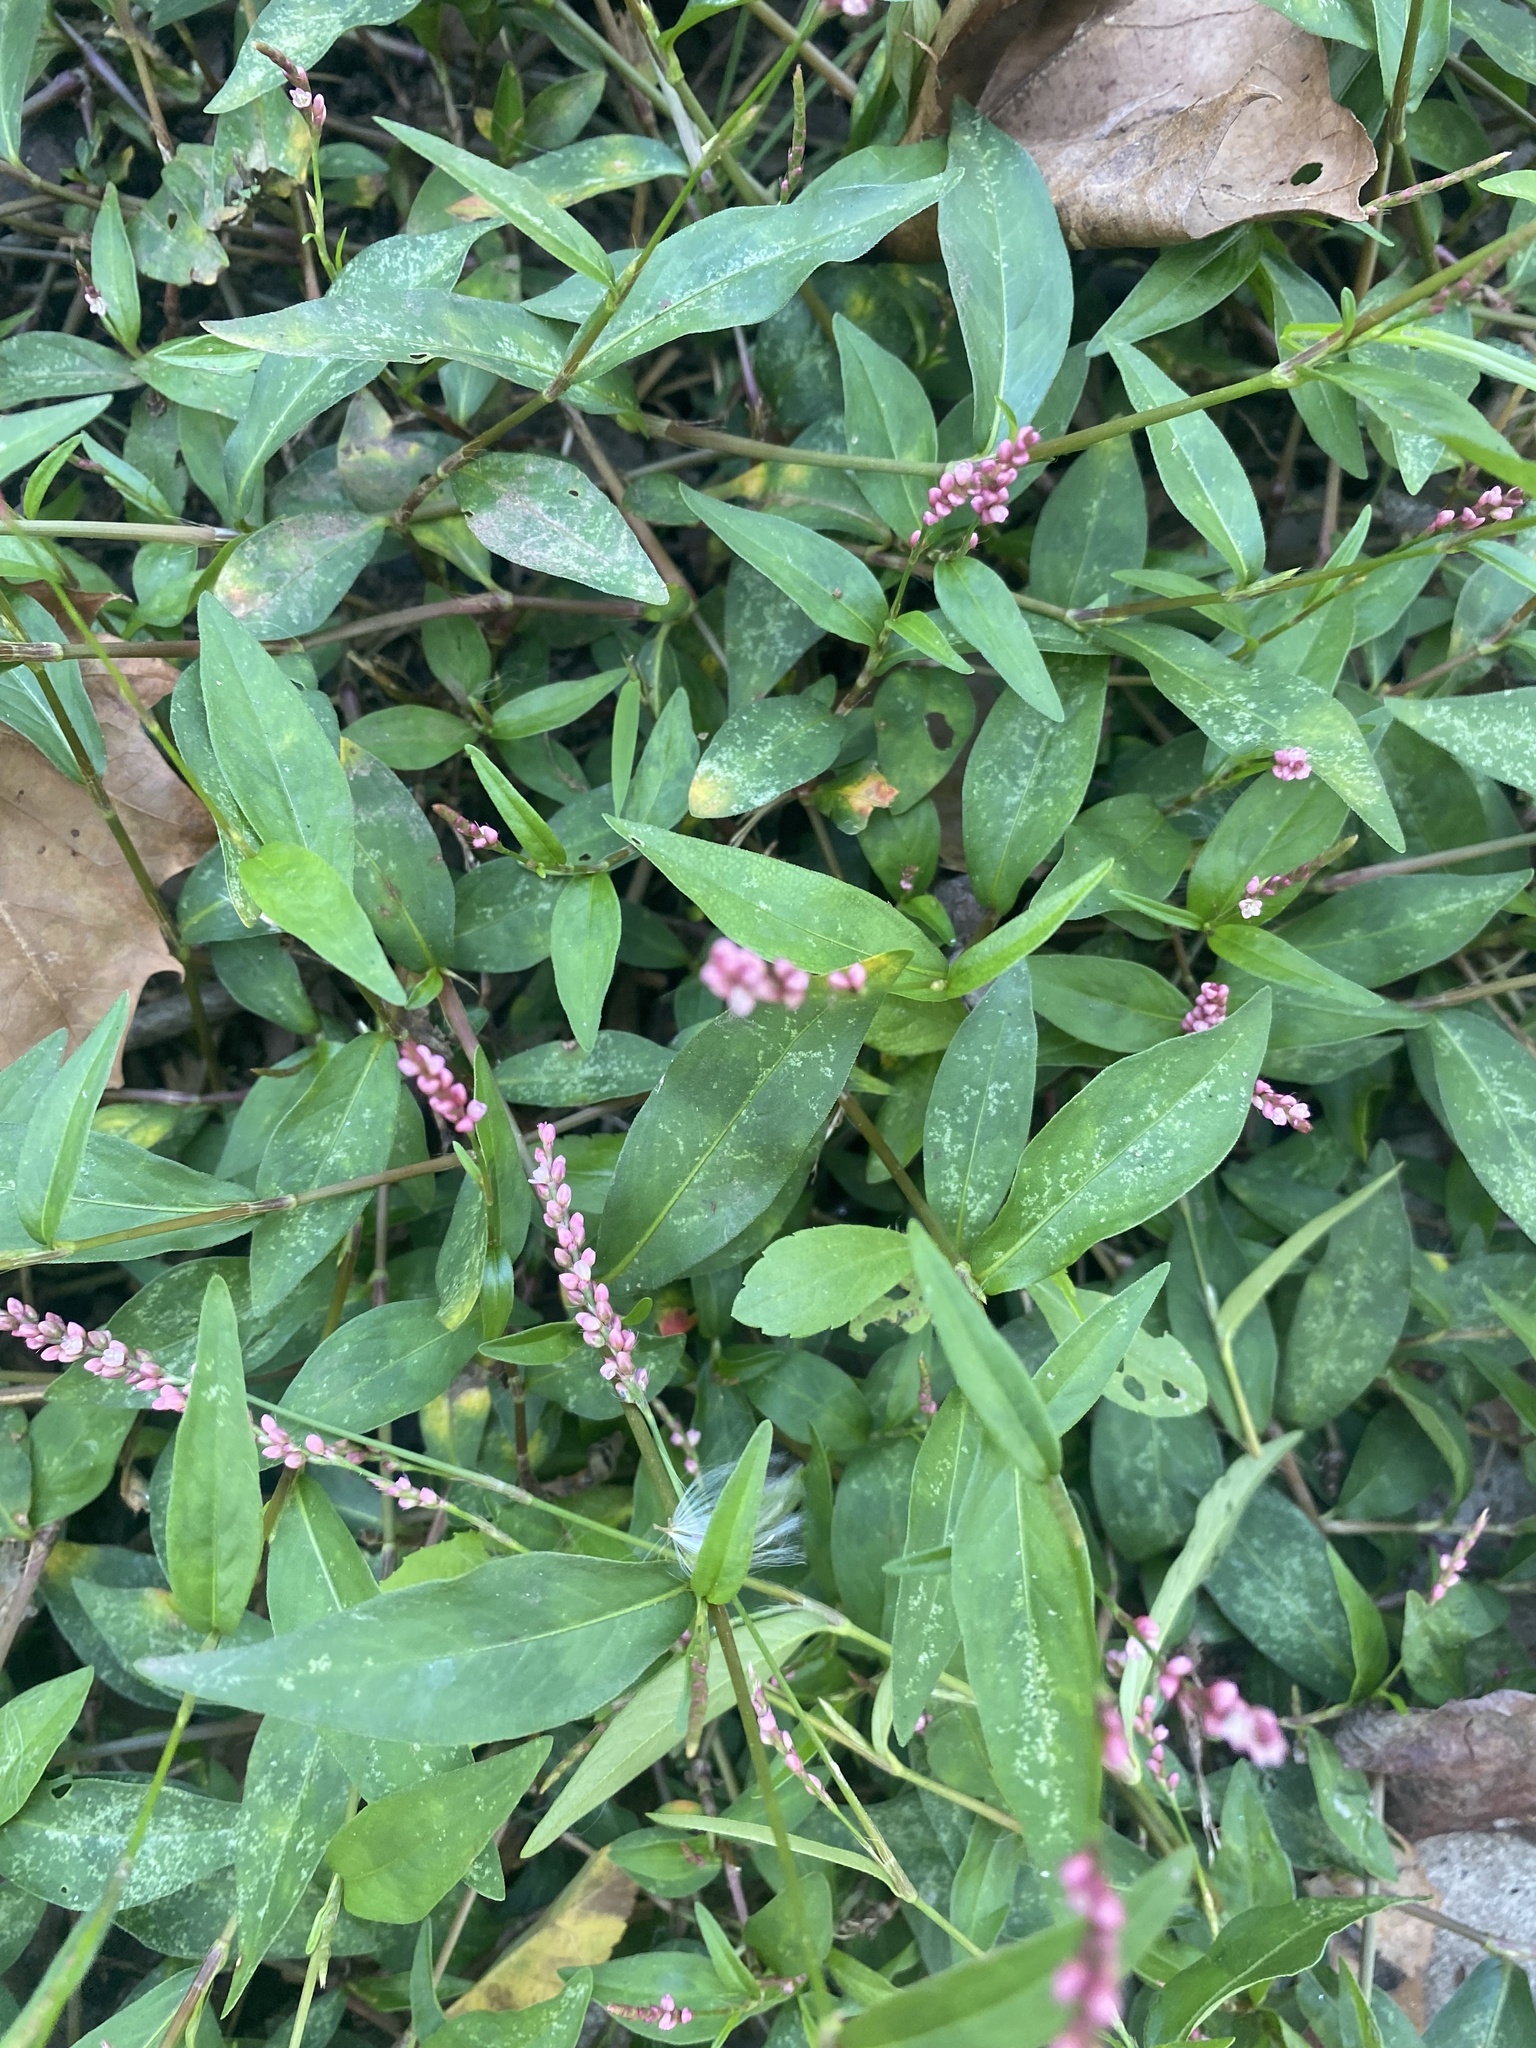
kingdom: Plantae
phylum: Tracheophyta
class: Magnoliopsida
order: Caryophyllales
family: Polygonaceae
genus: Persicaria
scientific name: Persicaria longiseta
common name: Bristly lady's-thumb
